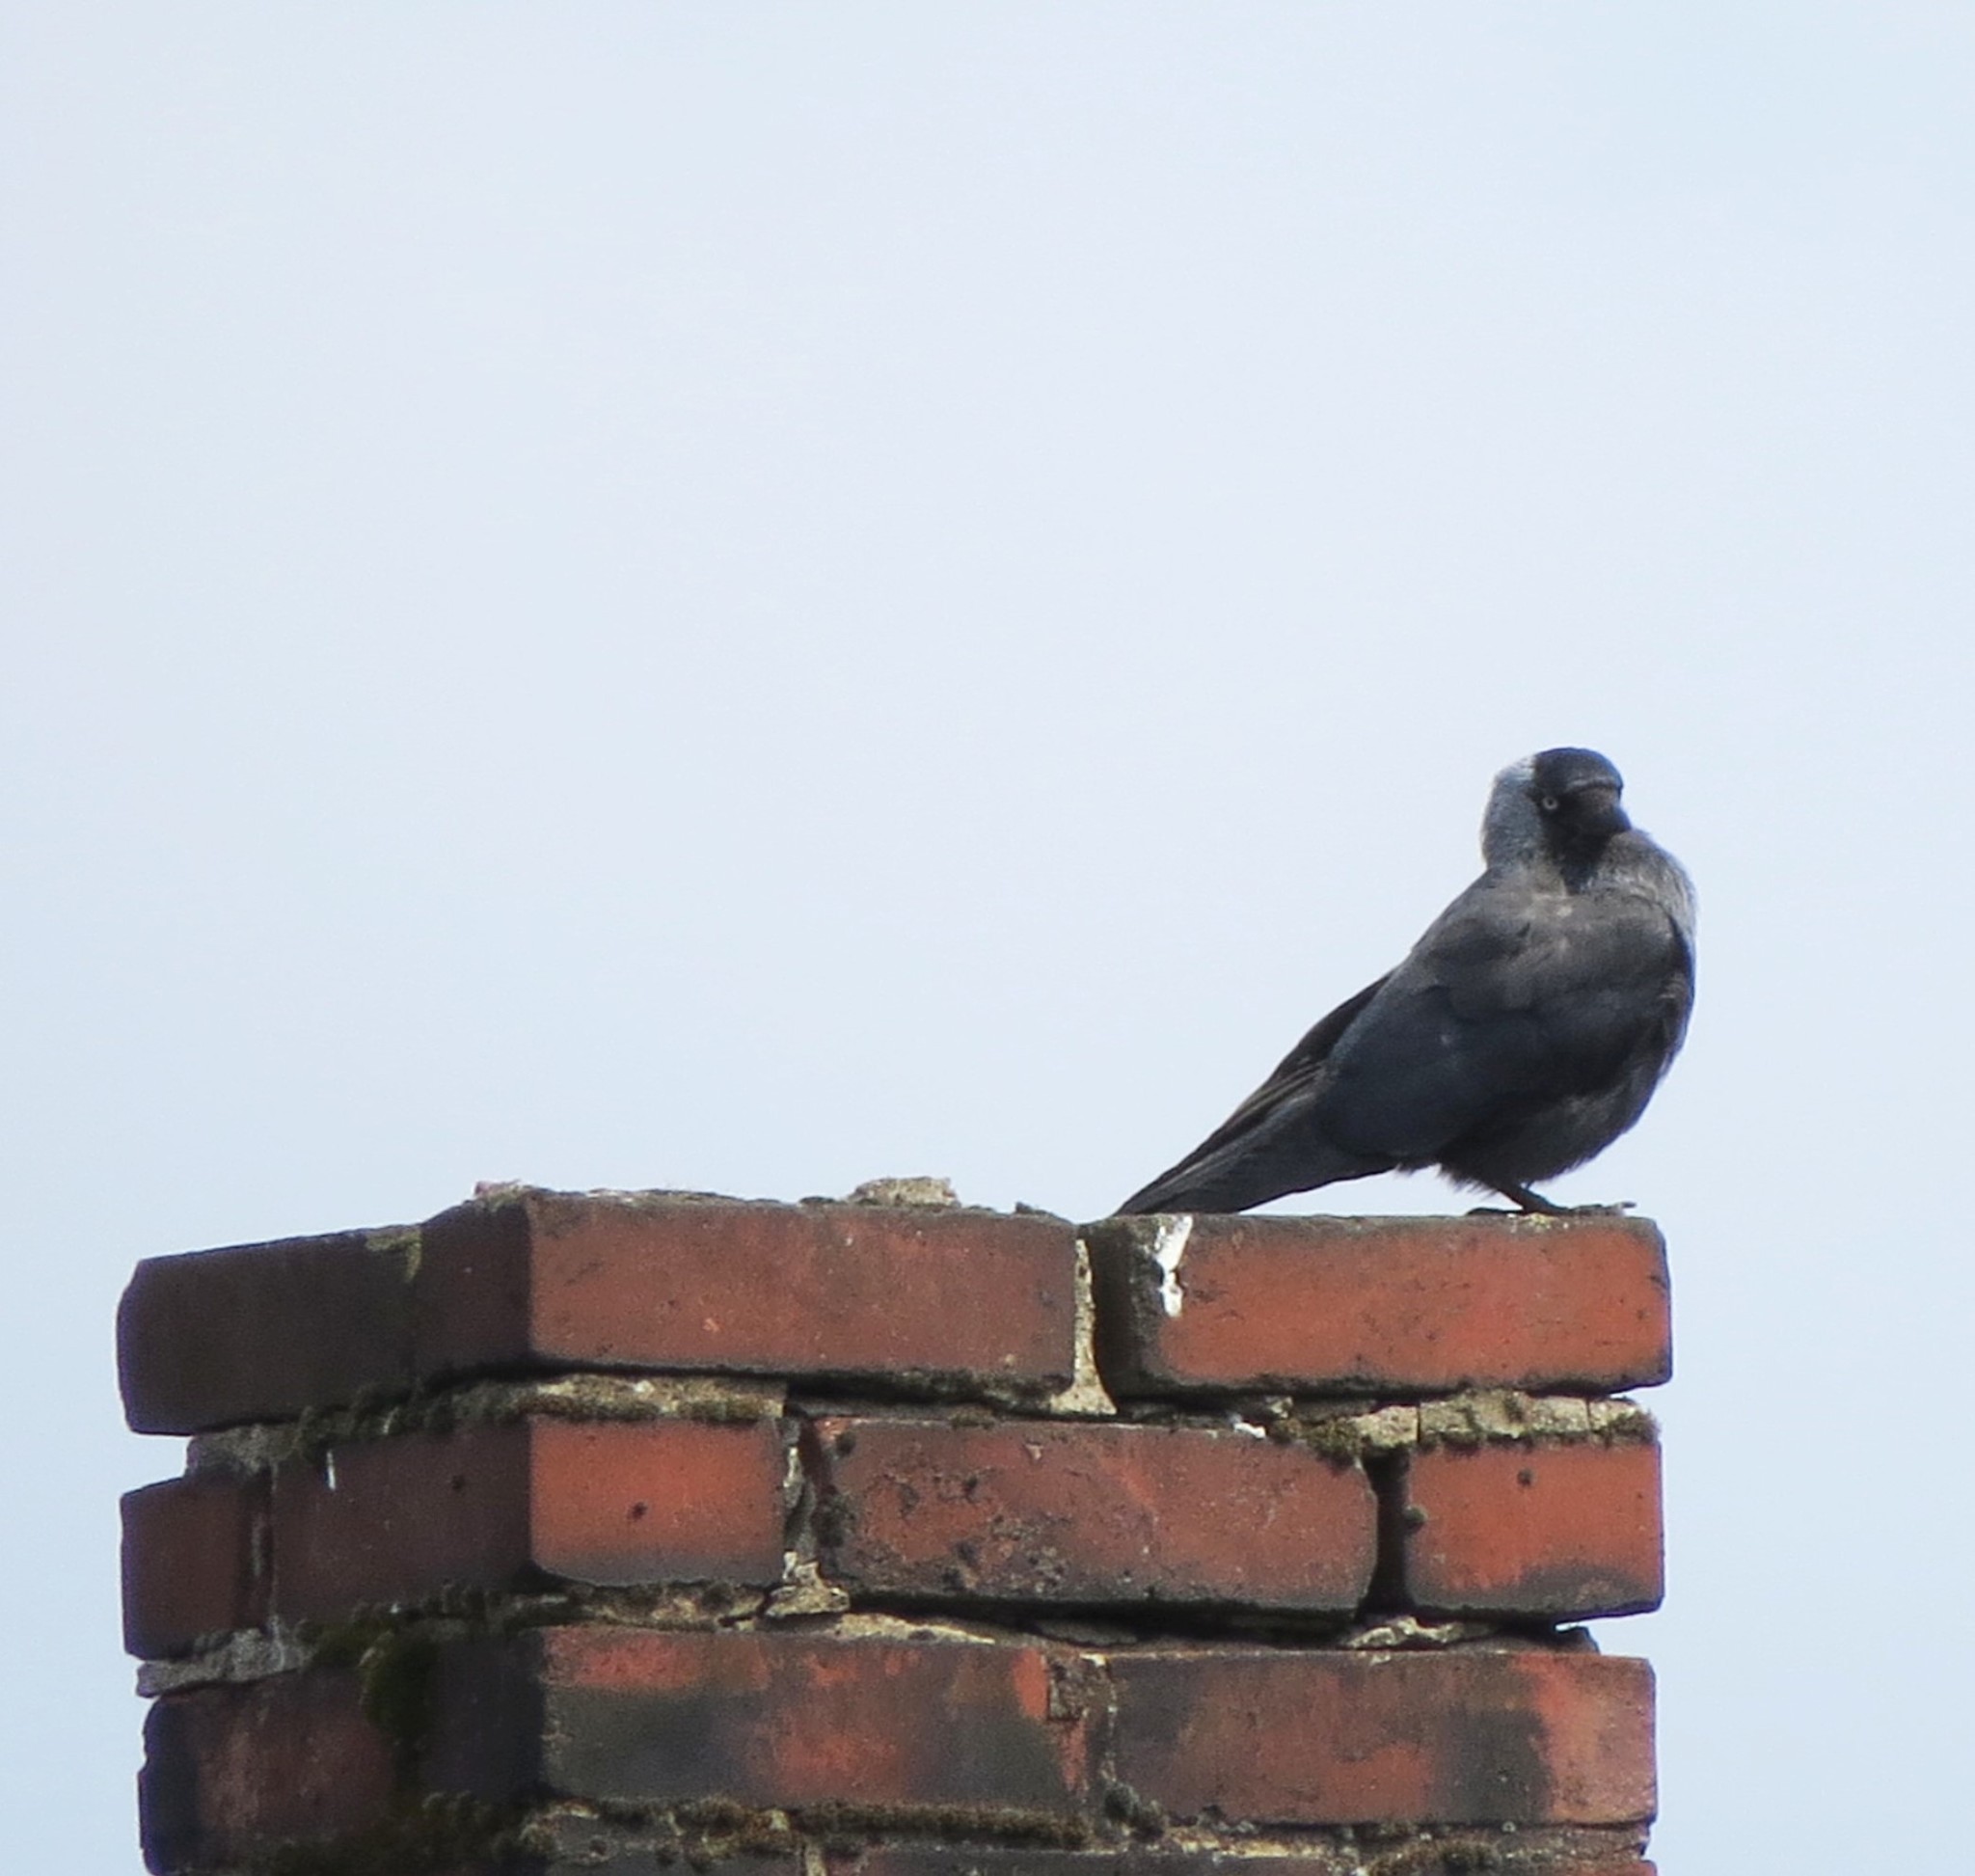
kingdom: Animalia
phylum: Chordata
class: Aves
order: Passeriformes
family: Corvidae
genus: Coloeus
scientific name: Coloeus monedula
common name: Western jackdaw
